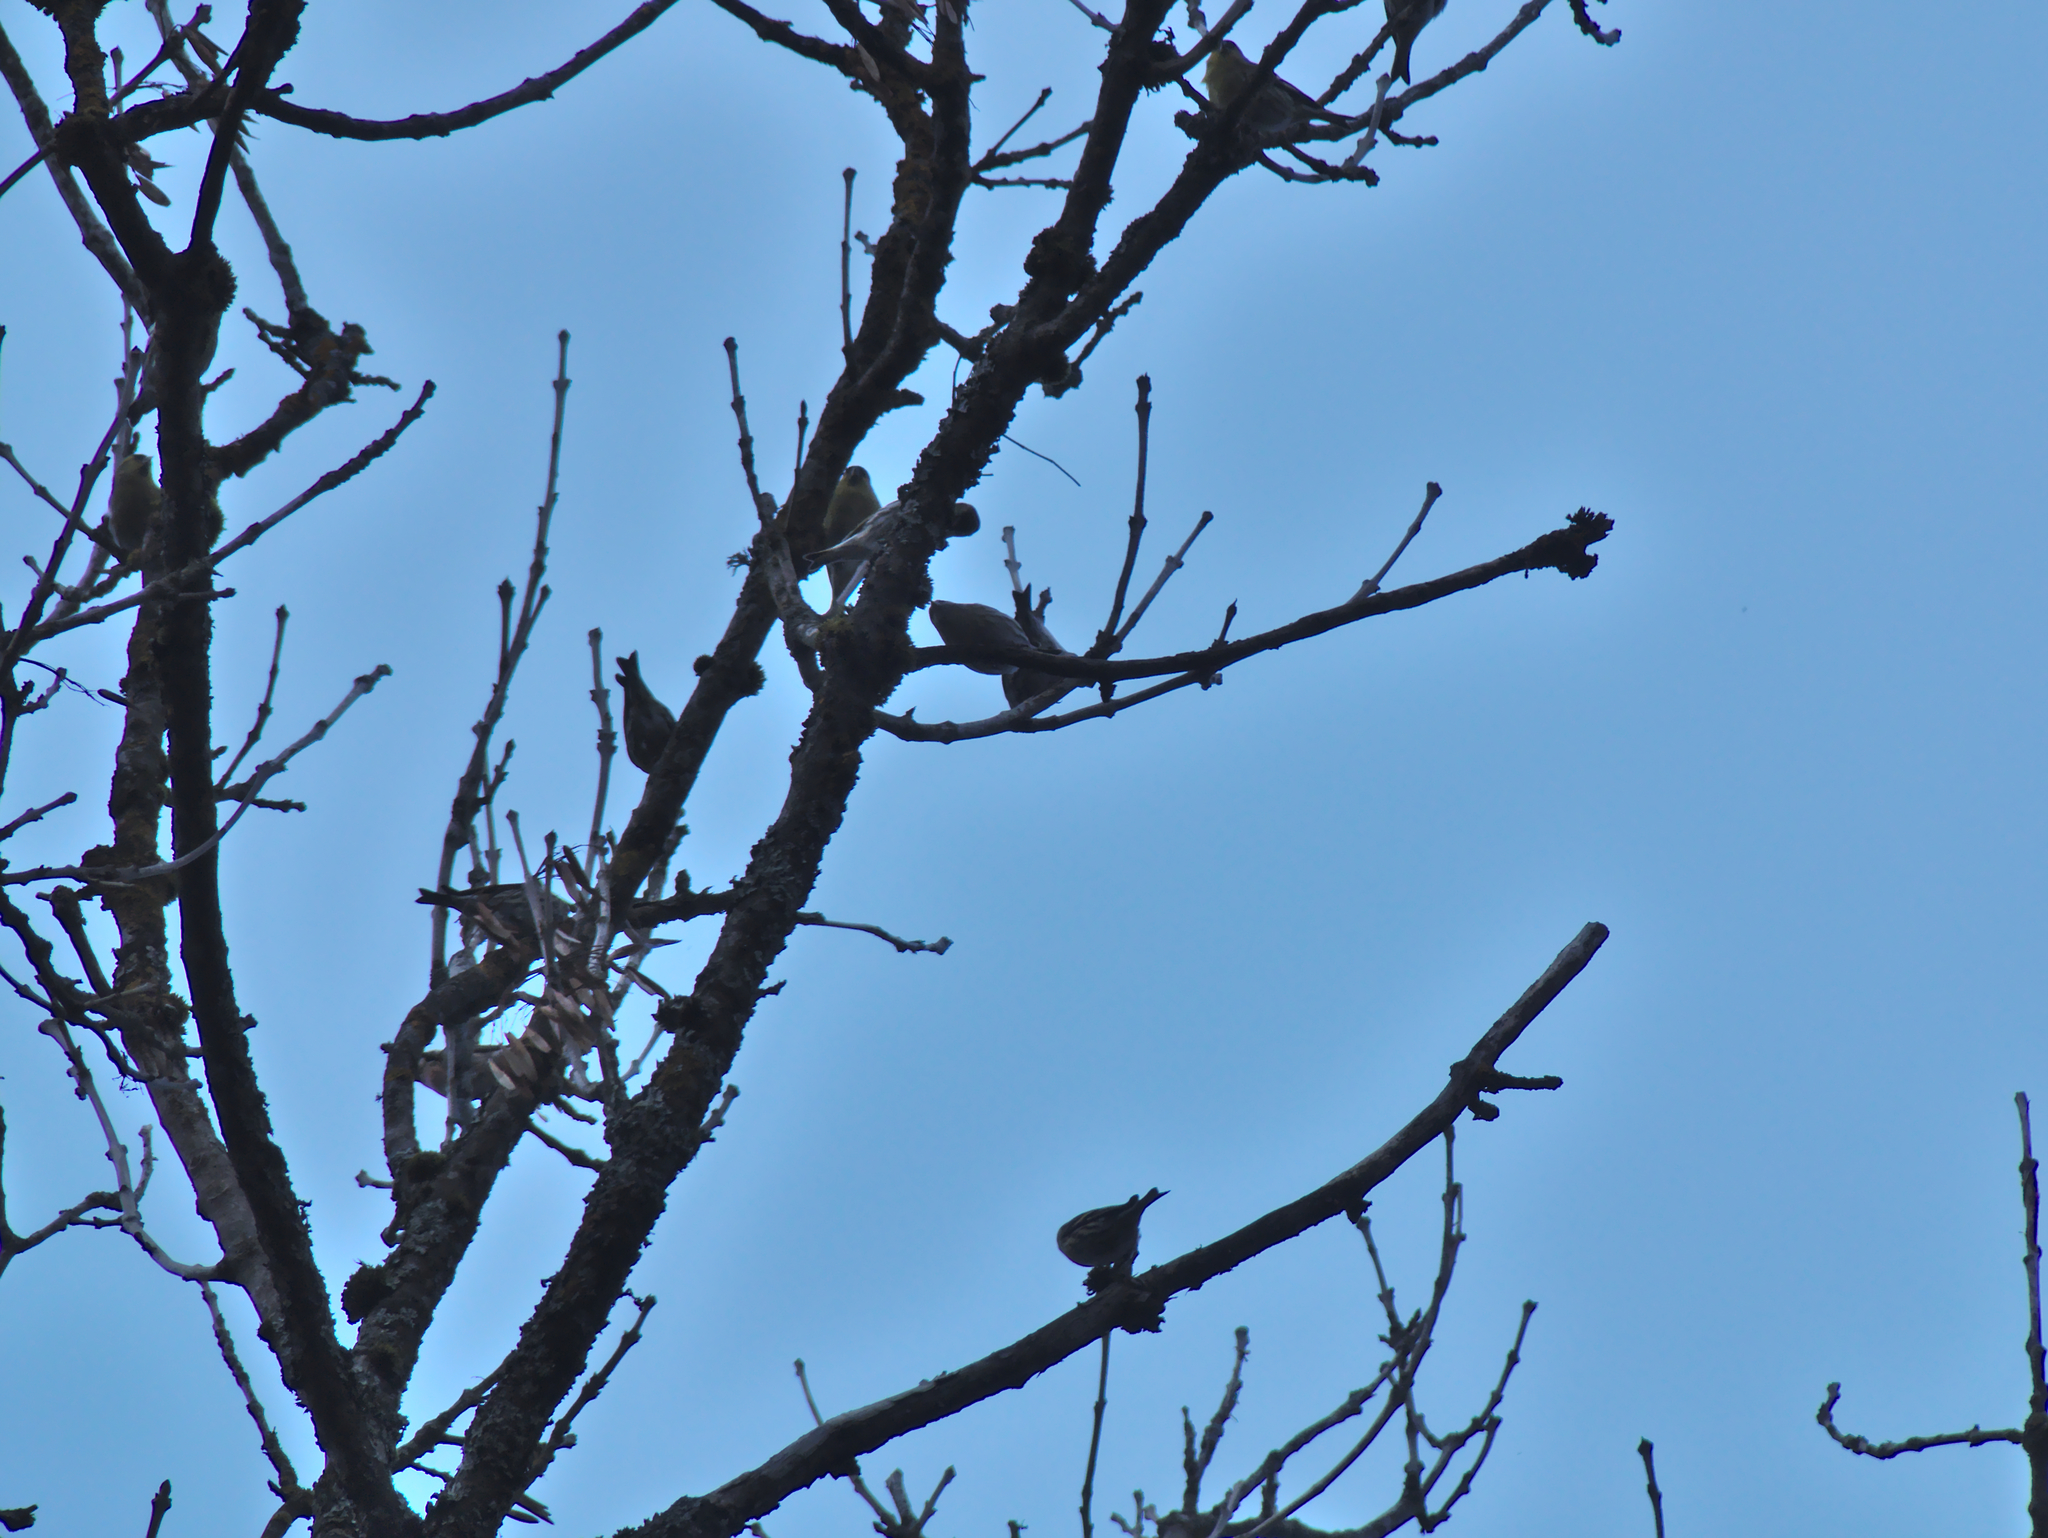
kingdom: Animalia
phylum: Chordata
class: Aves
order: Passeriformes
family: Fringillidae
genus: Spinus
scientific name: Spinus spinus
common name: Eurasian siskin
